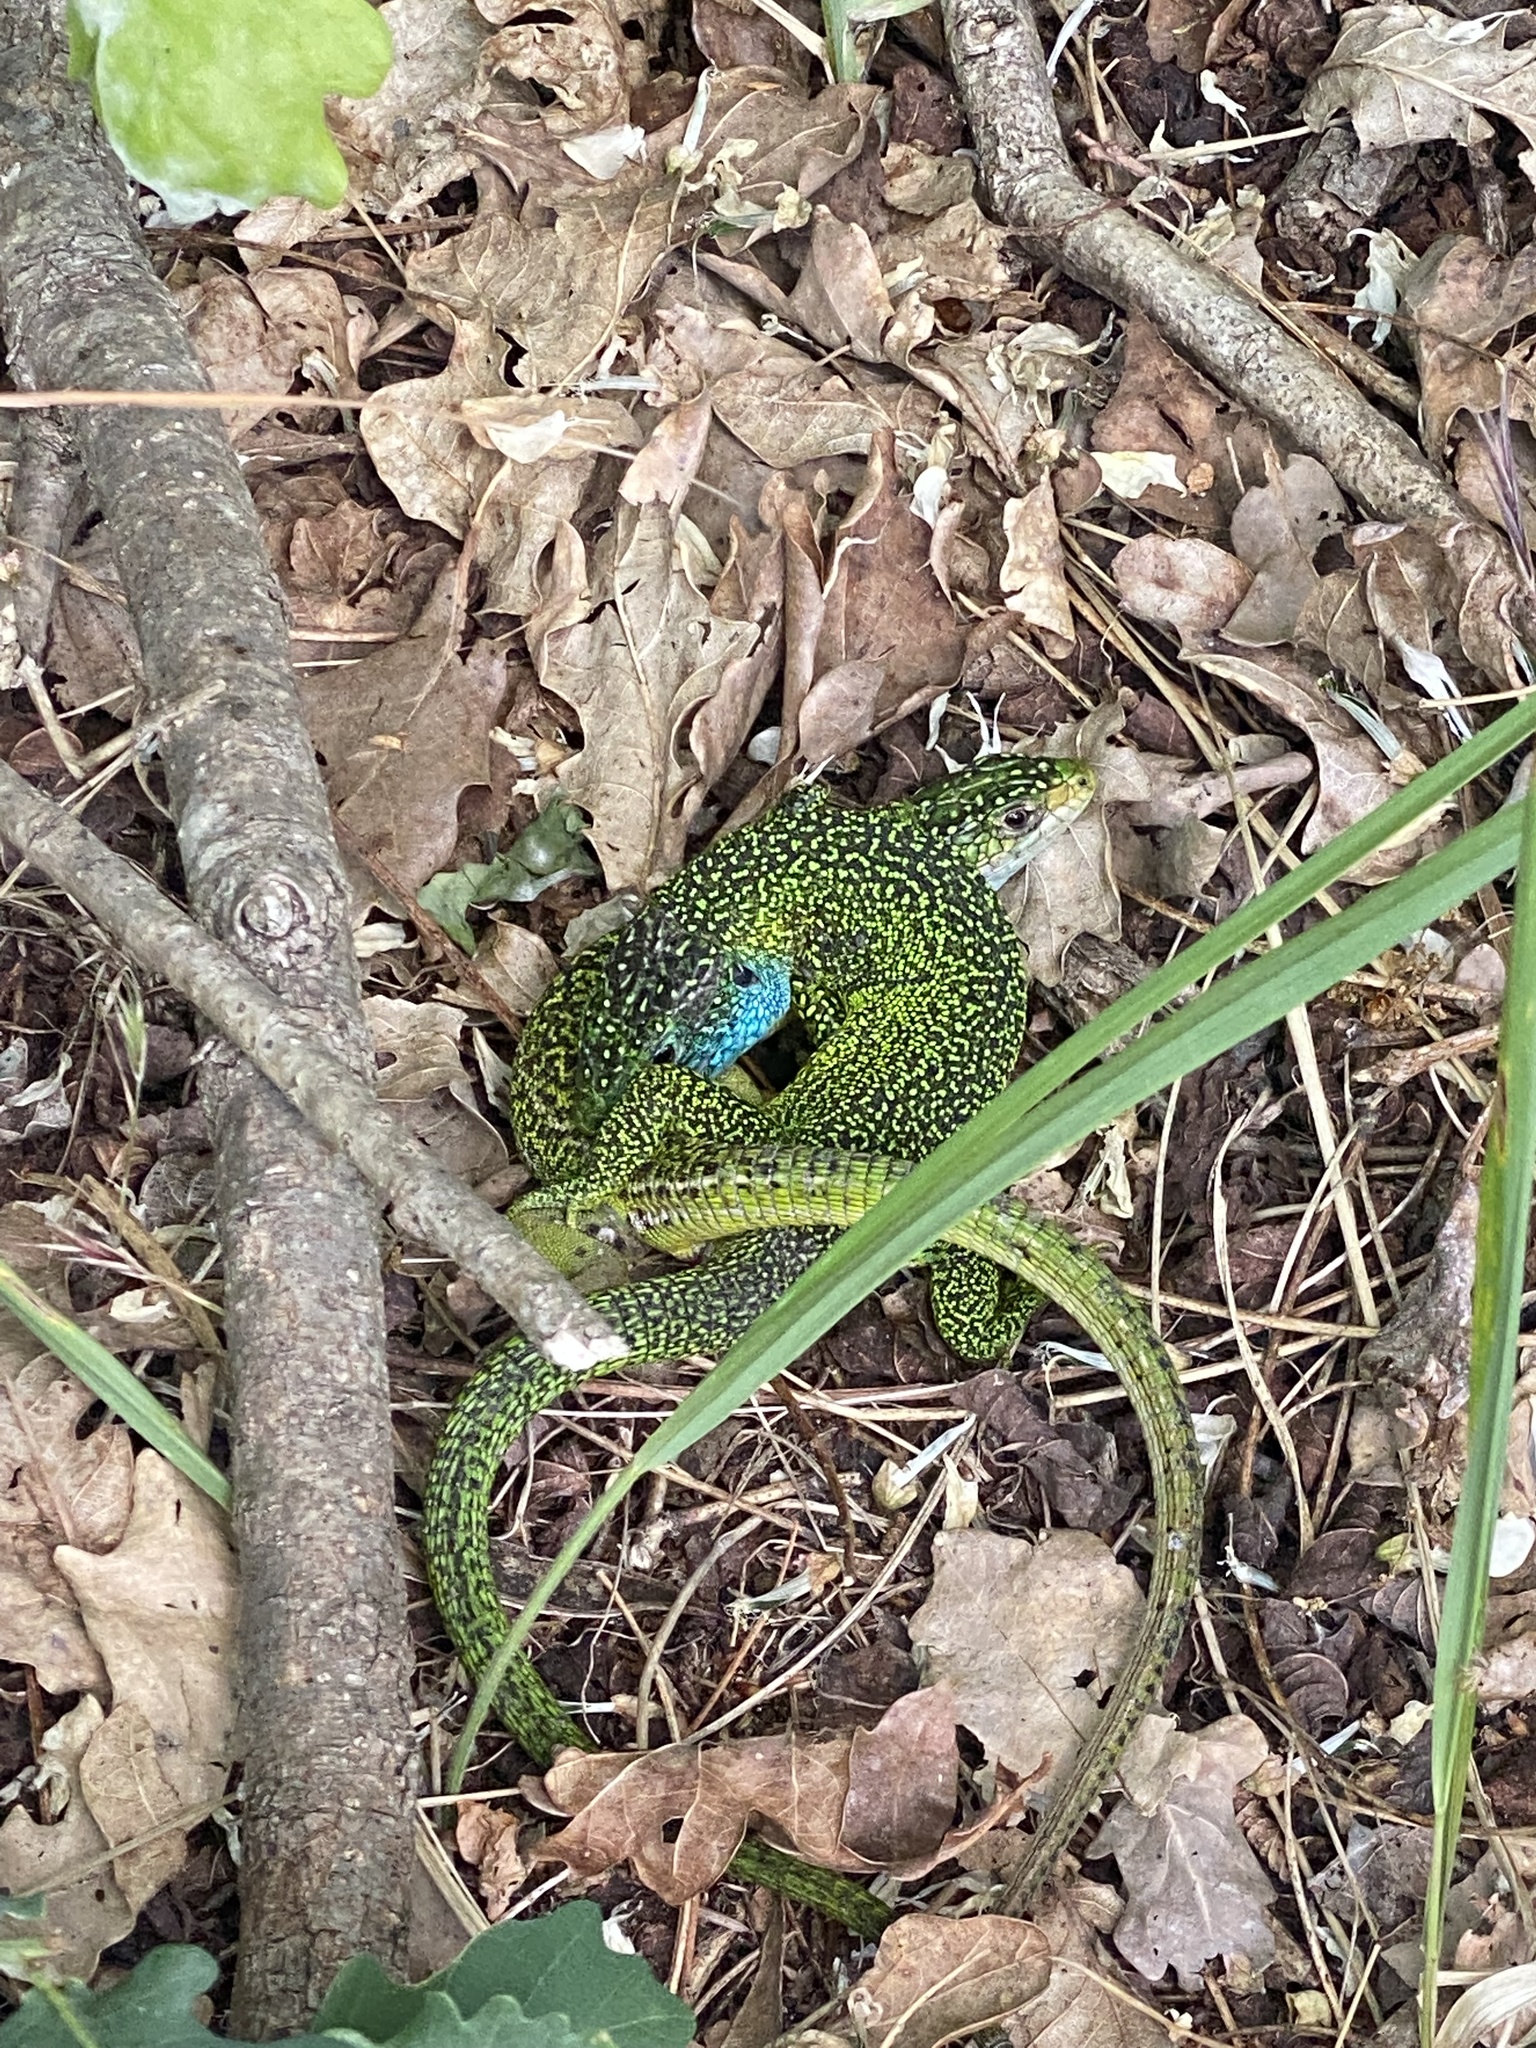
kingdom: Animalia
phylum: Chordata
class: Squamata
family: Lacertidae
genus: Lacerta
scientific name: Lacerta bilineata
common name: Western green lizard
